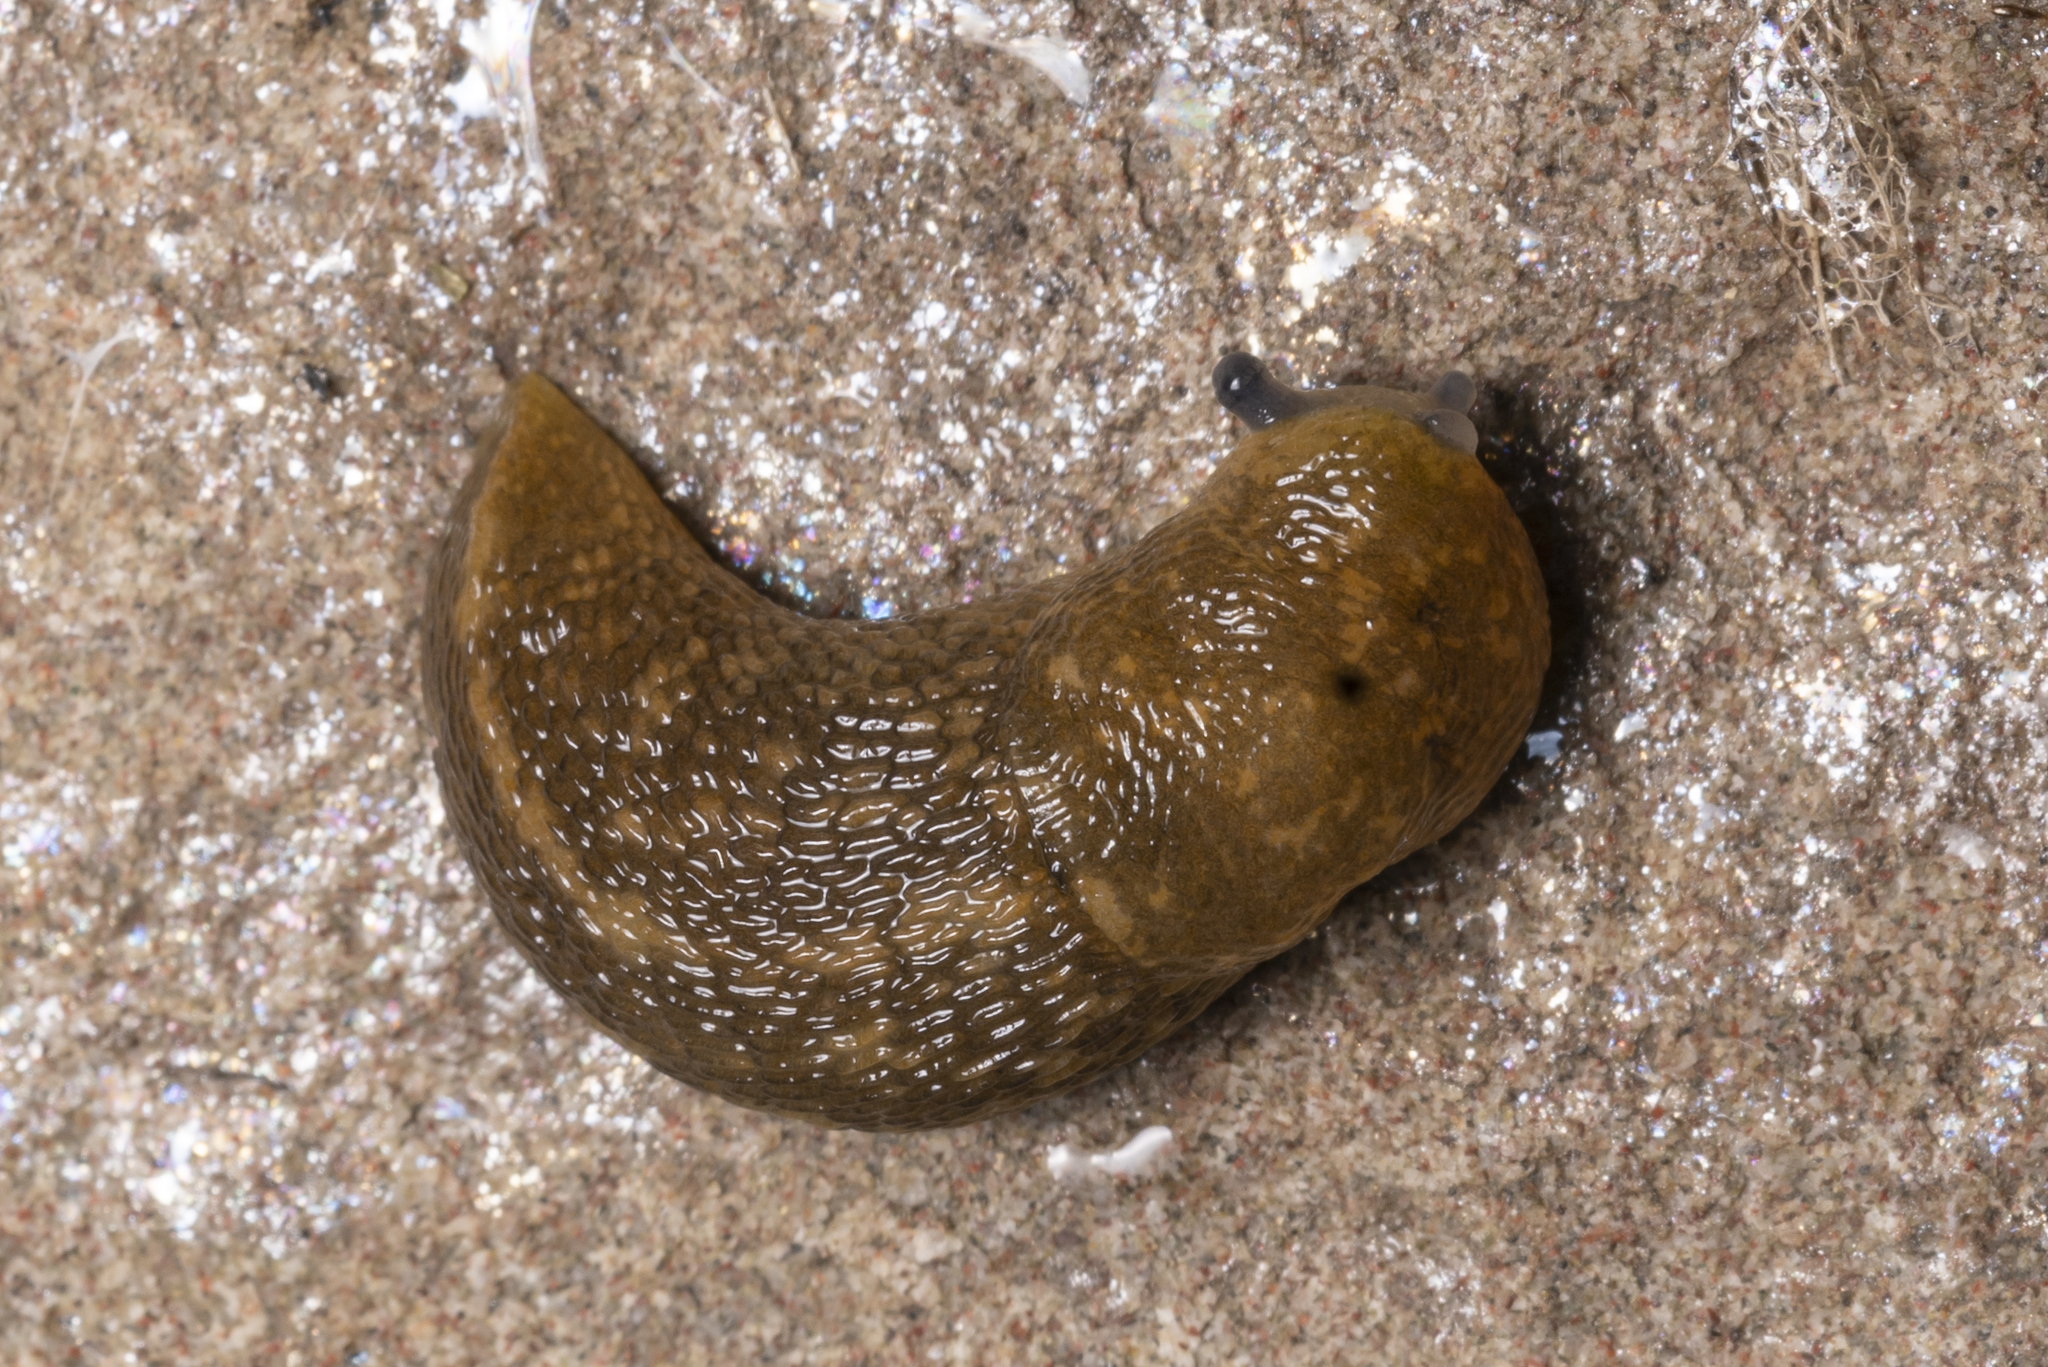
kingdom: Animalia
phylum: Mollusca
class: Gastropoda
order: Stylommatophora
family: Limacidae
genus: Limacus
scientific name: Limacus flavus
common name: Yellow gardenslug
